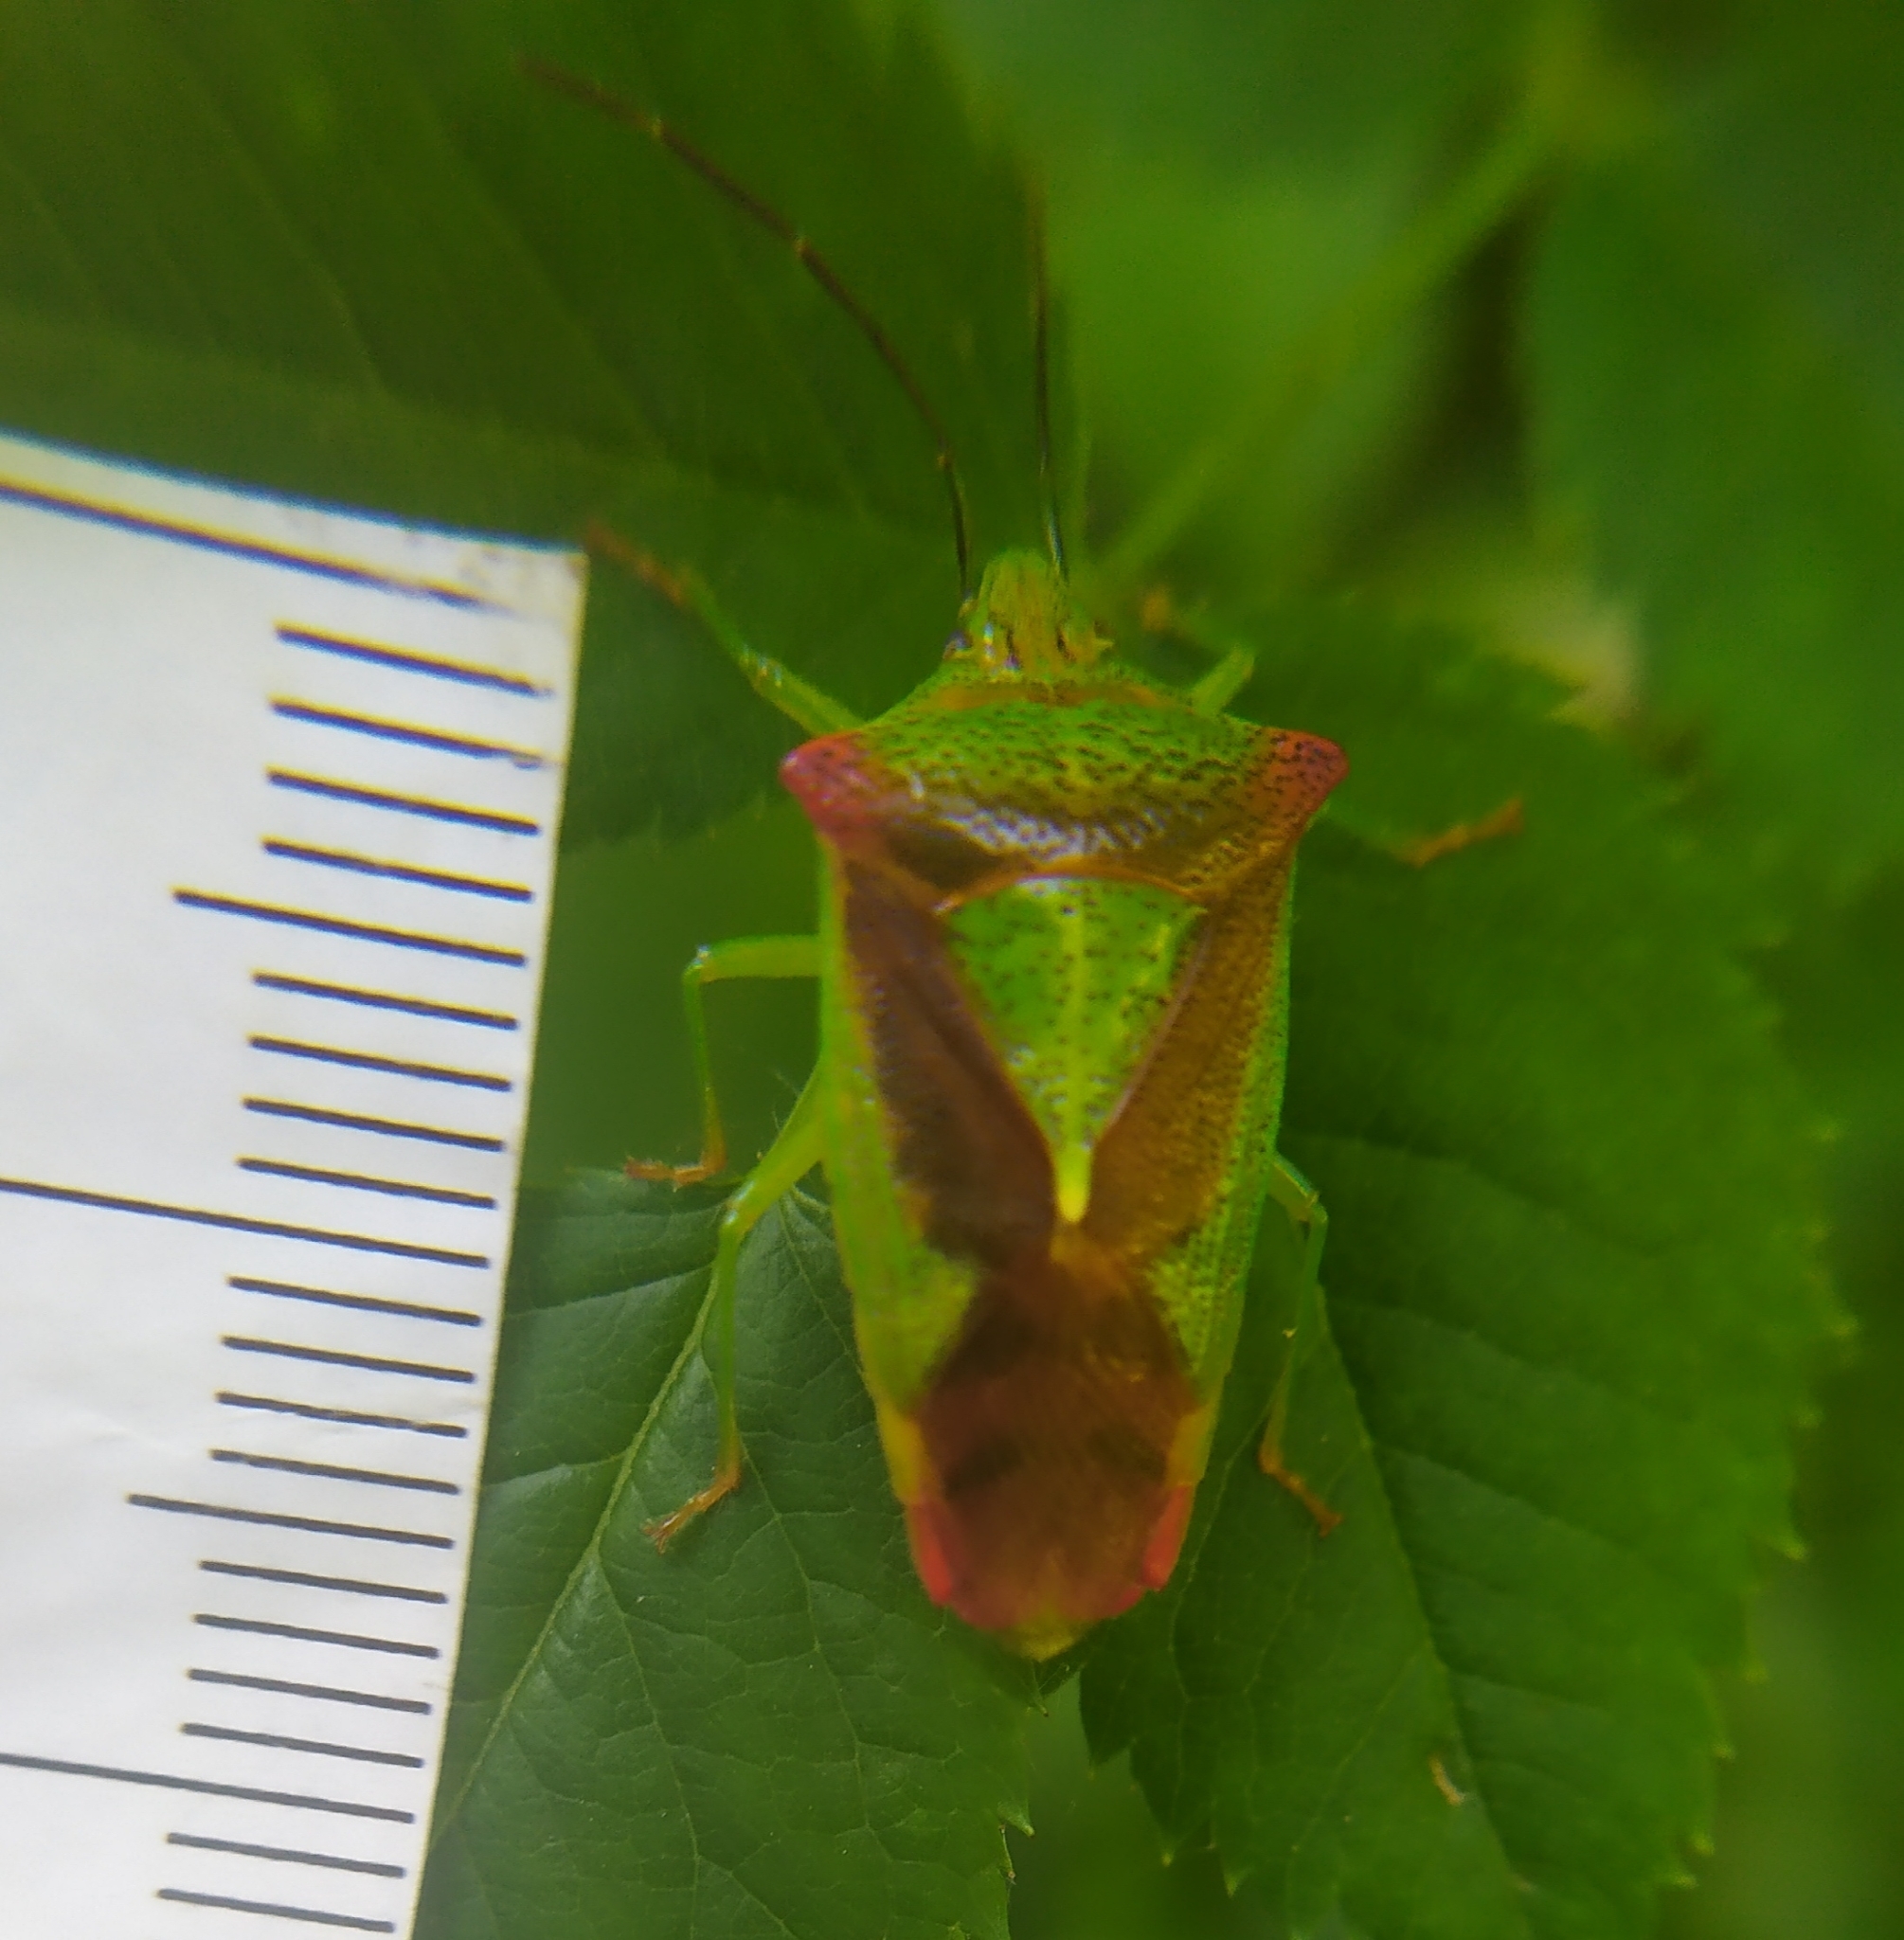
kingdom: Animalia
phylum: Arthropoda
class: Insecta
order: Hemiptera
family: Acanthosomatidae
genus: Acanthosoma
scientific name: Acanthosoma haemorrhoidale
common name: Hawthorn shieldbug
